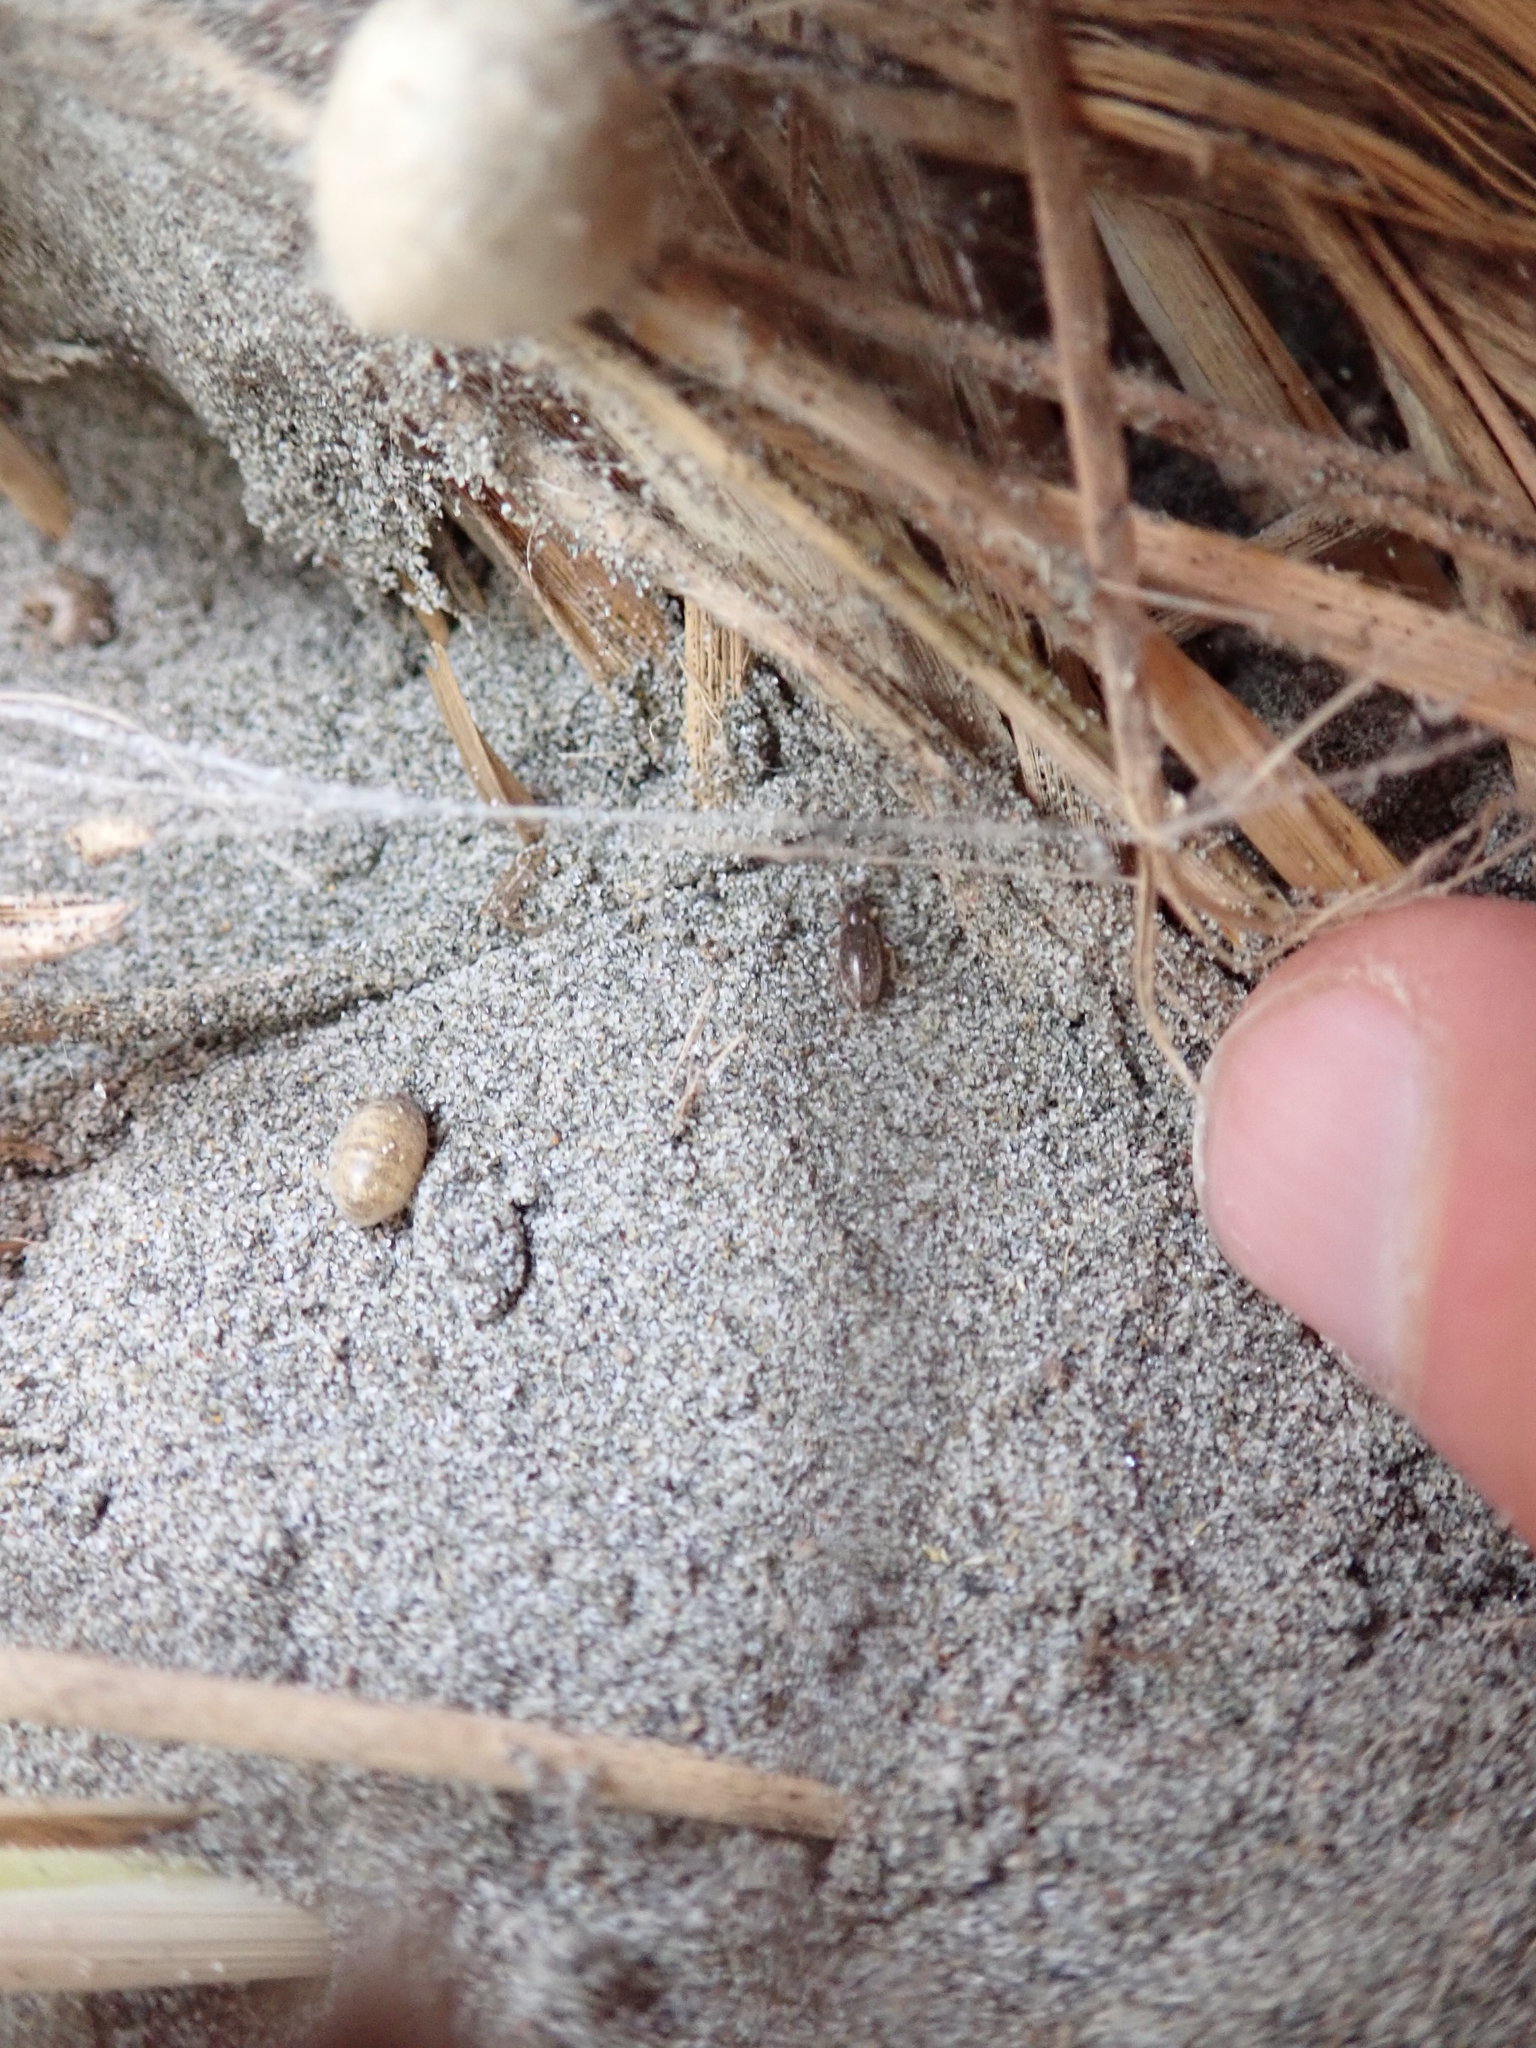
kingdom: Animalia
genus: Lagrioda
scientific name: Lagrioda brounii
